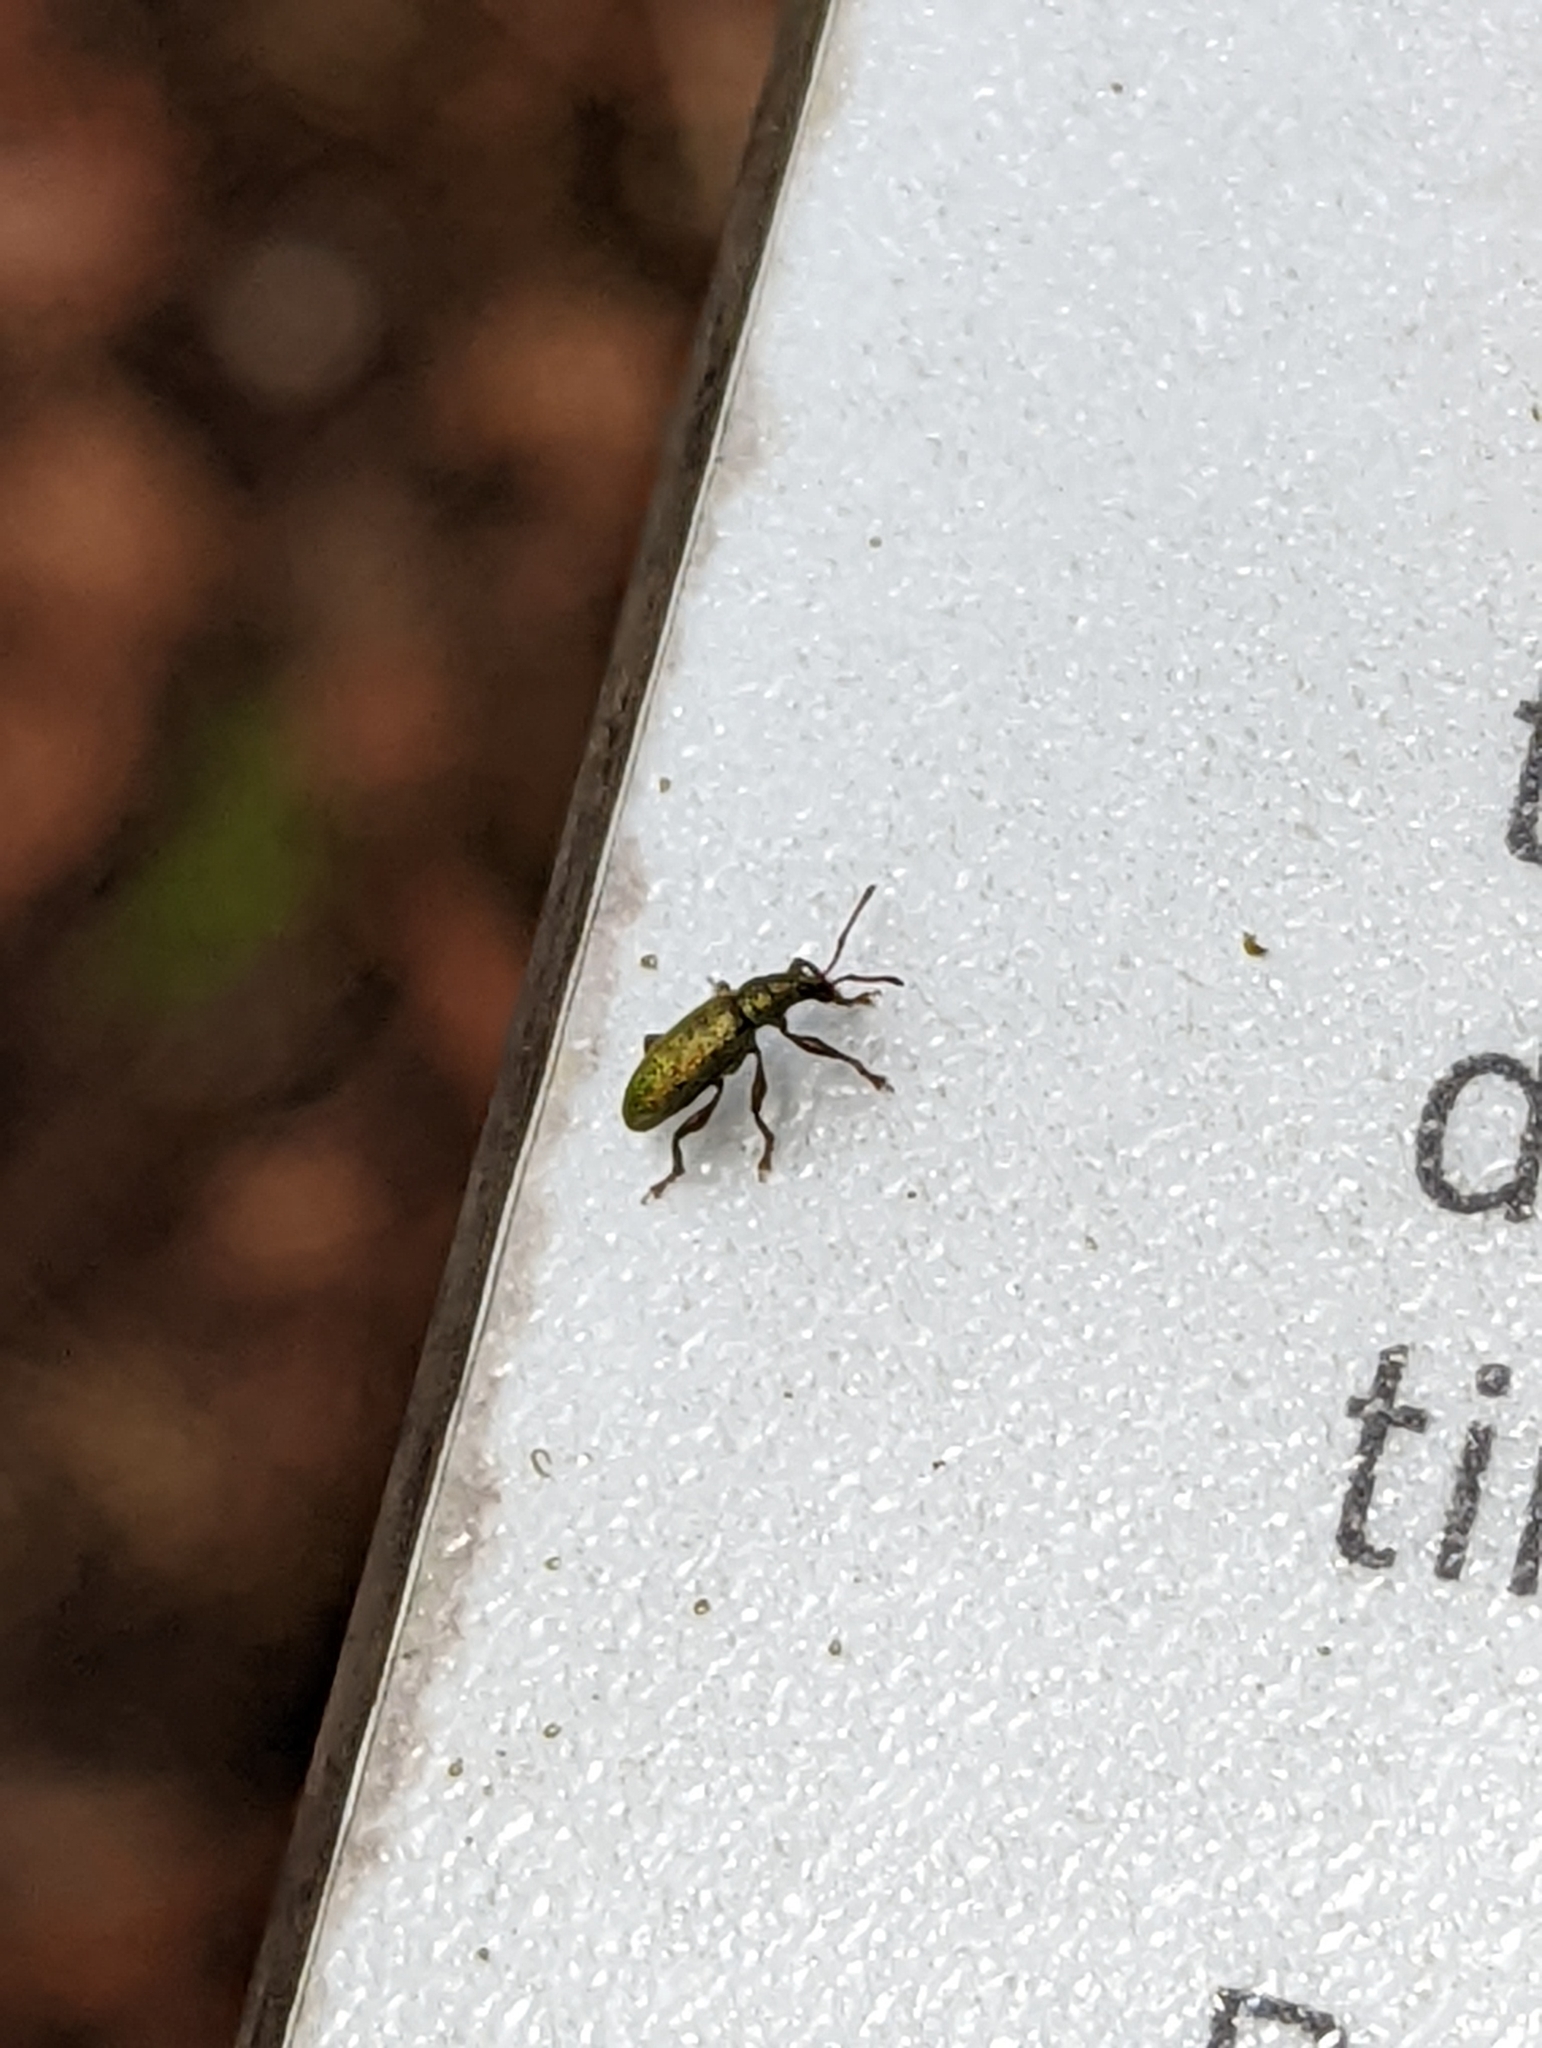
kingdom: Animalia
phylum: Arthropoda
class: Insecta
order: Coleoptera
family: Curculionidae
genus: Parascythopus
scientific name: Parascythopus intrusus
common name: Weevil
